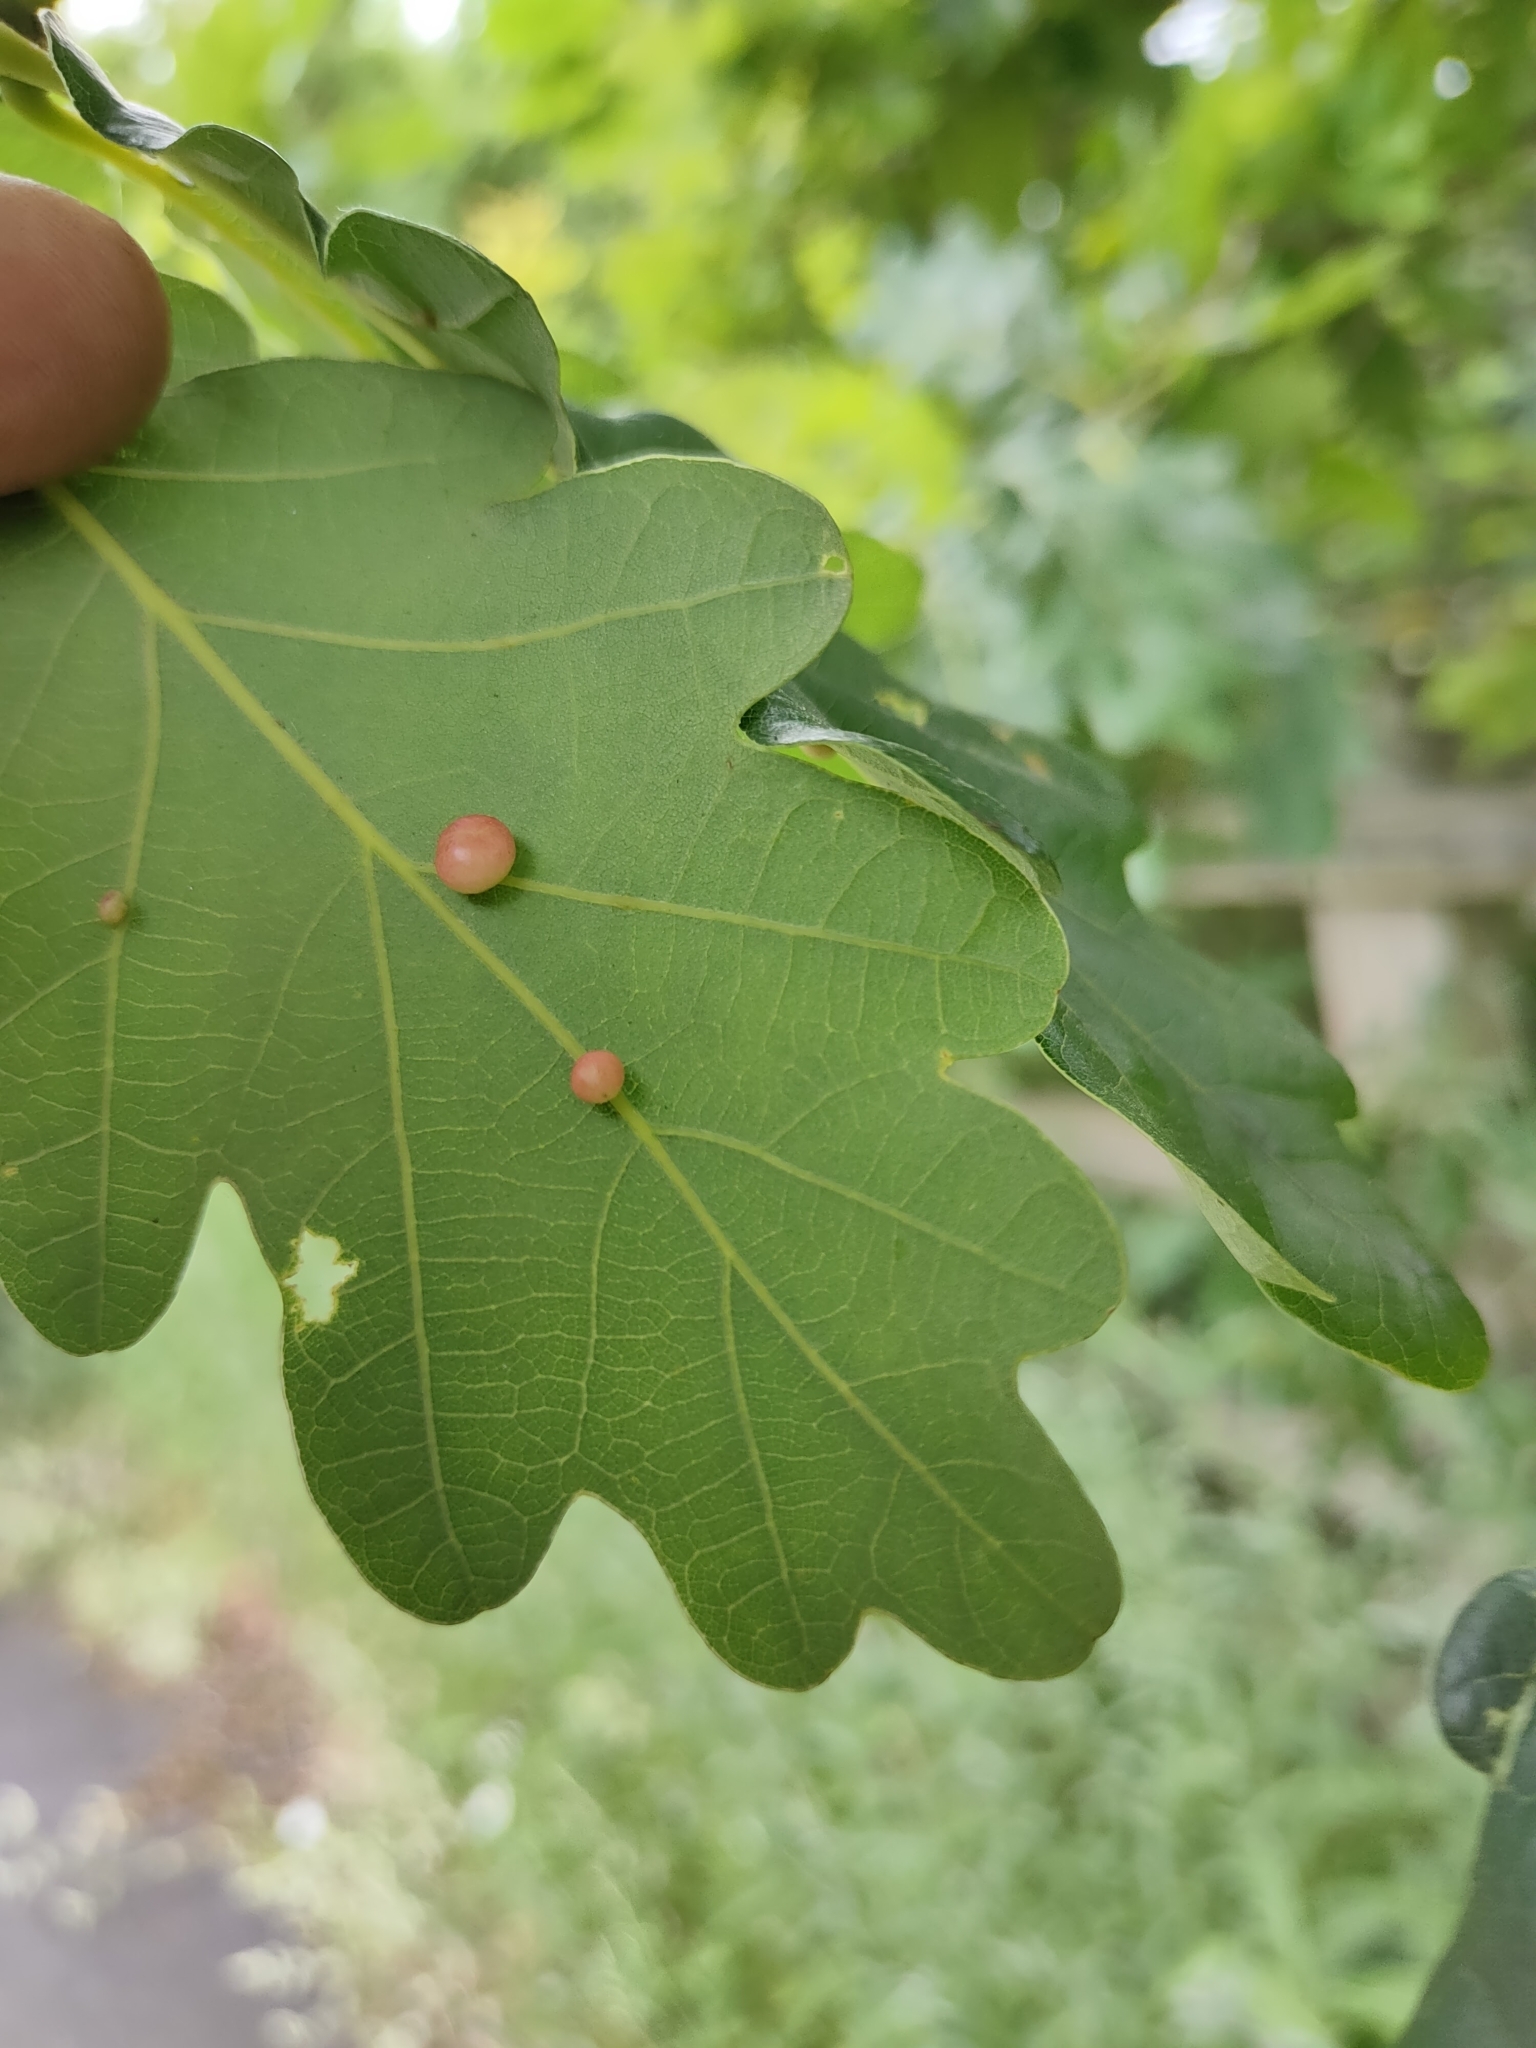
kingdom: Animalia
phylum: Arthropoda
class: Insecta
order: Hymenoptera
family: Cynipidae
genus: Cynips
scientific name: Cynips divisa
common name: Red currant gall
